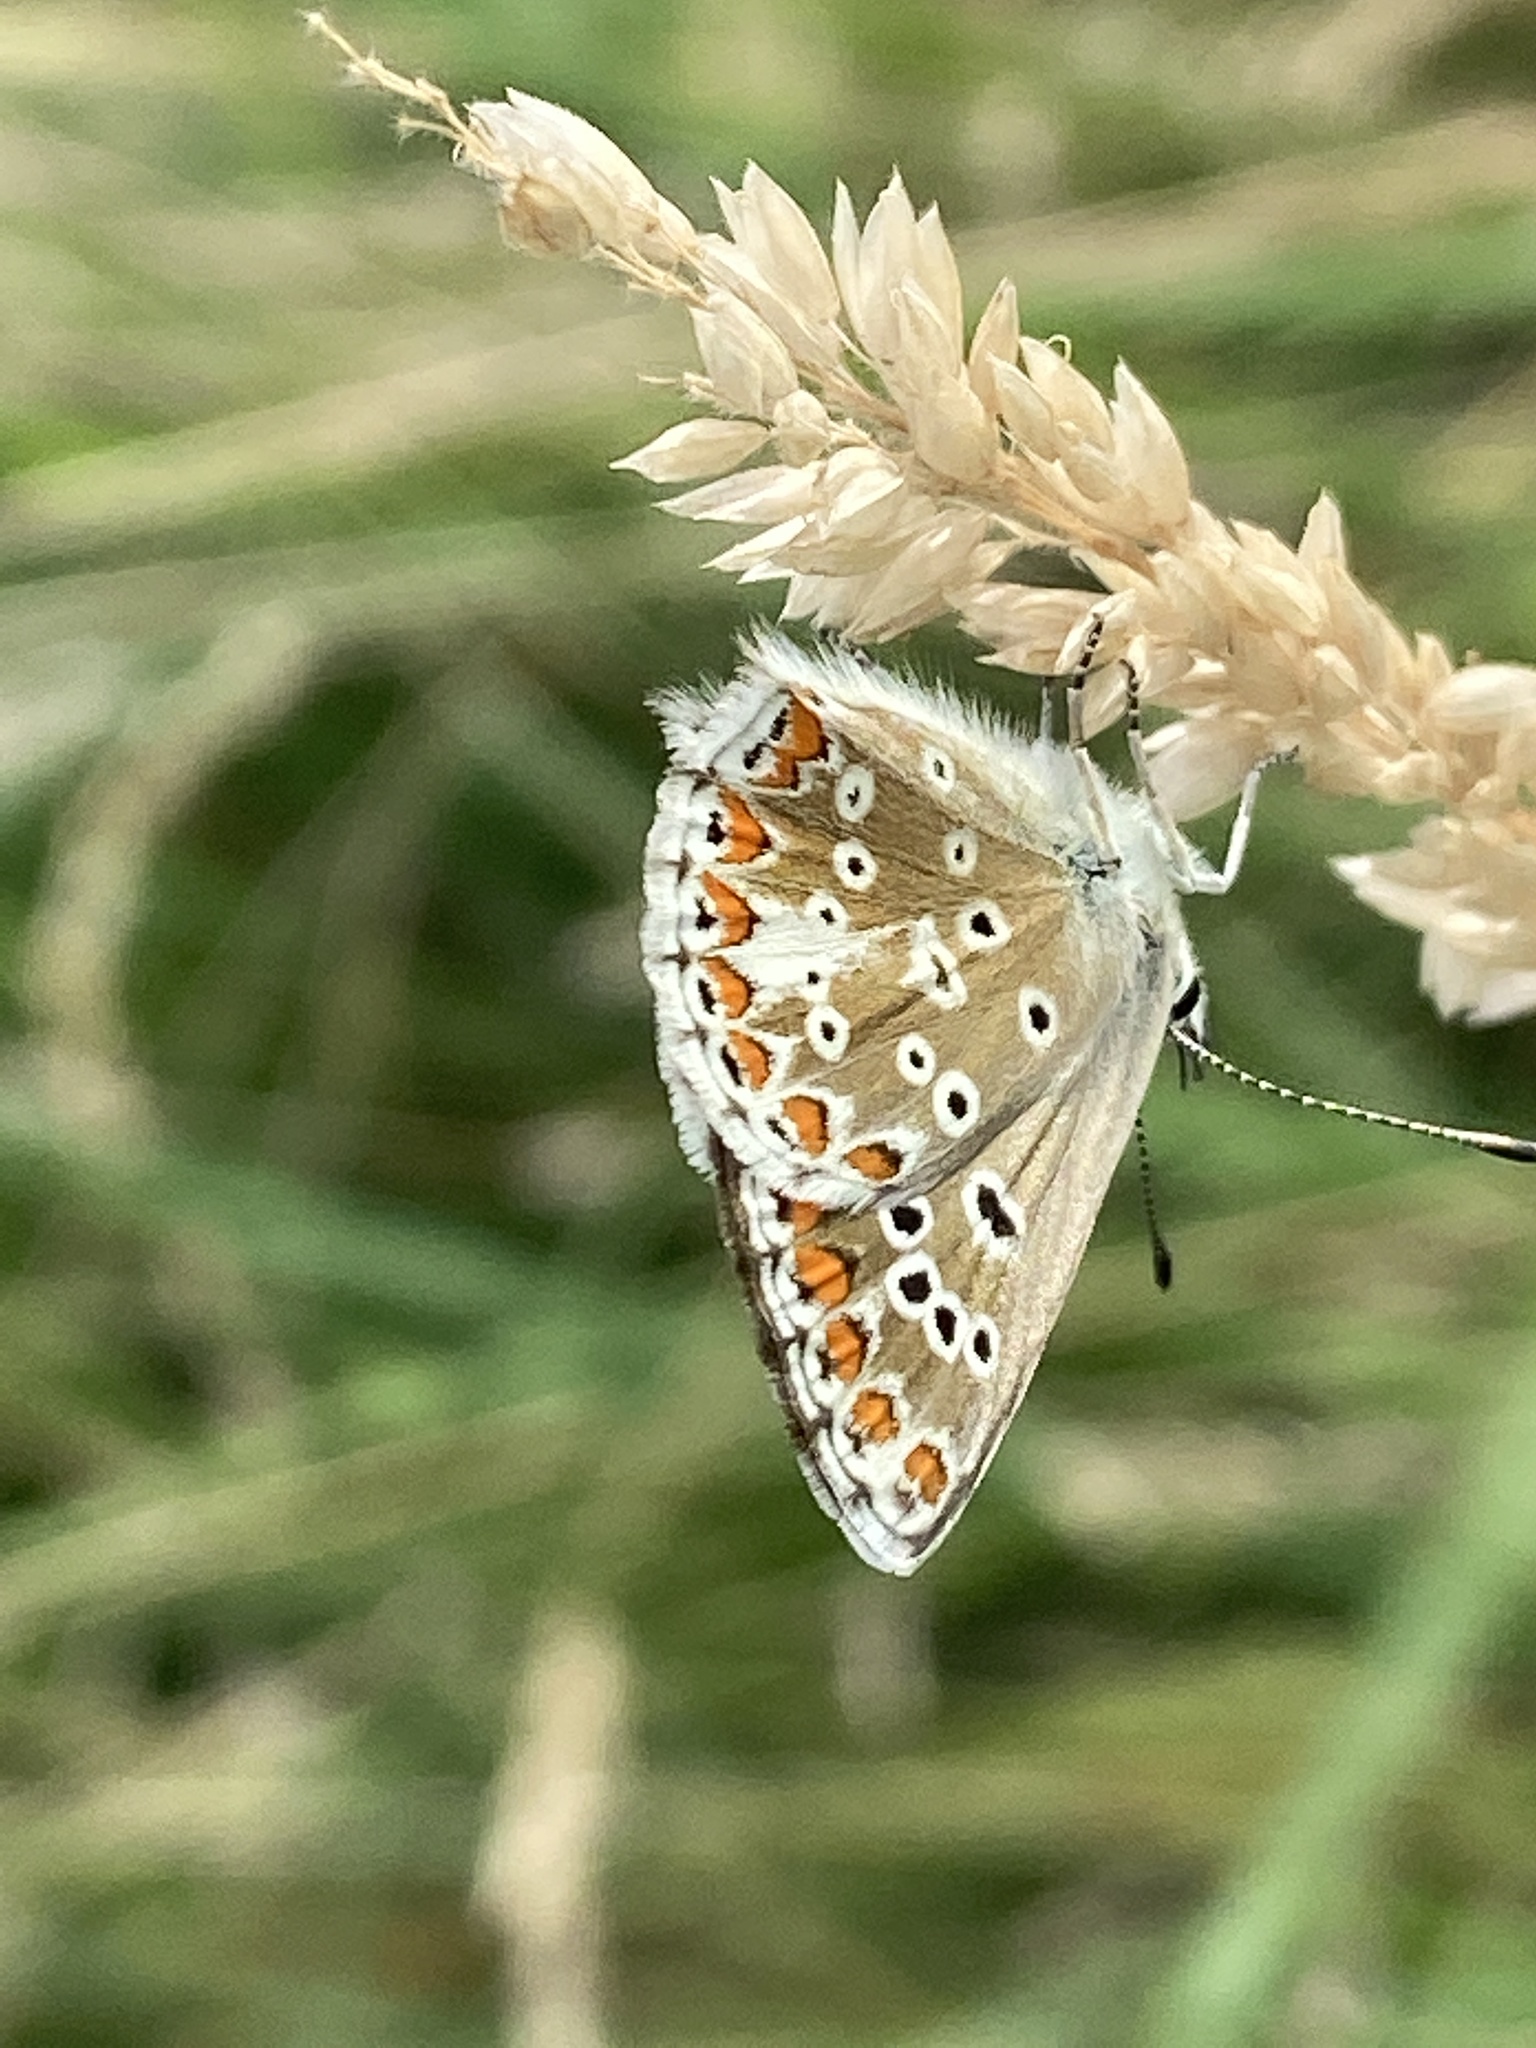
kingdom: Animalia
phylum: Arthropoda
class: Insecta
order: Lepidoptera
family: Lycaenidae
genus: Aricia
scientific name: Aricia agestis
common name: Brown argus
